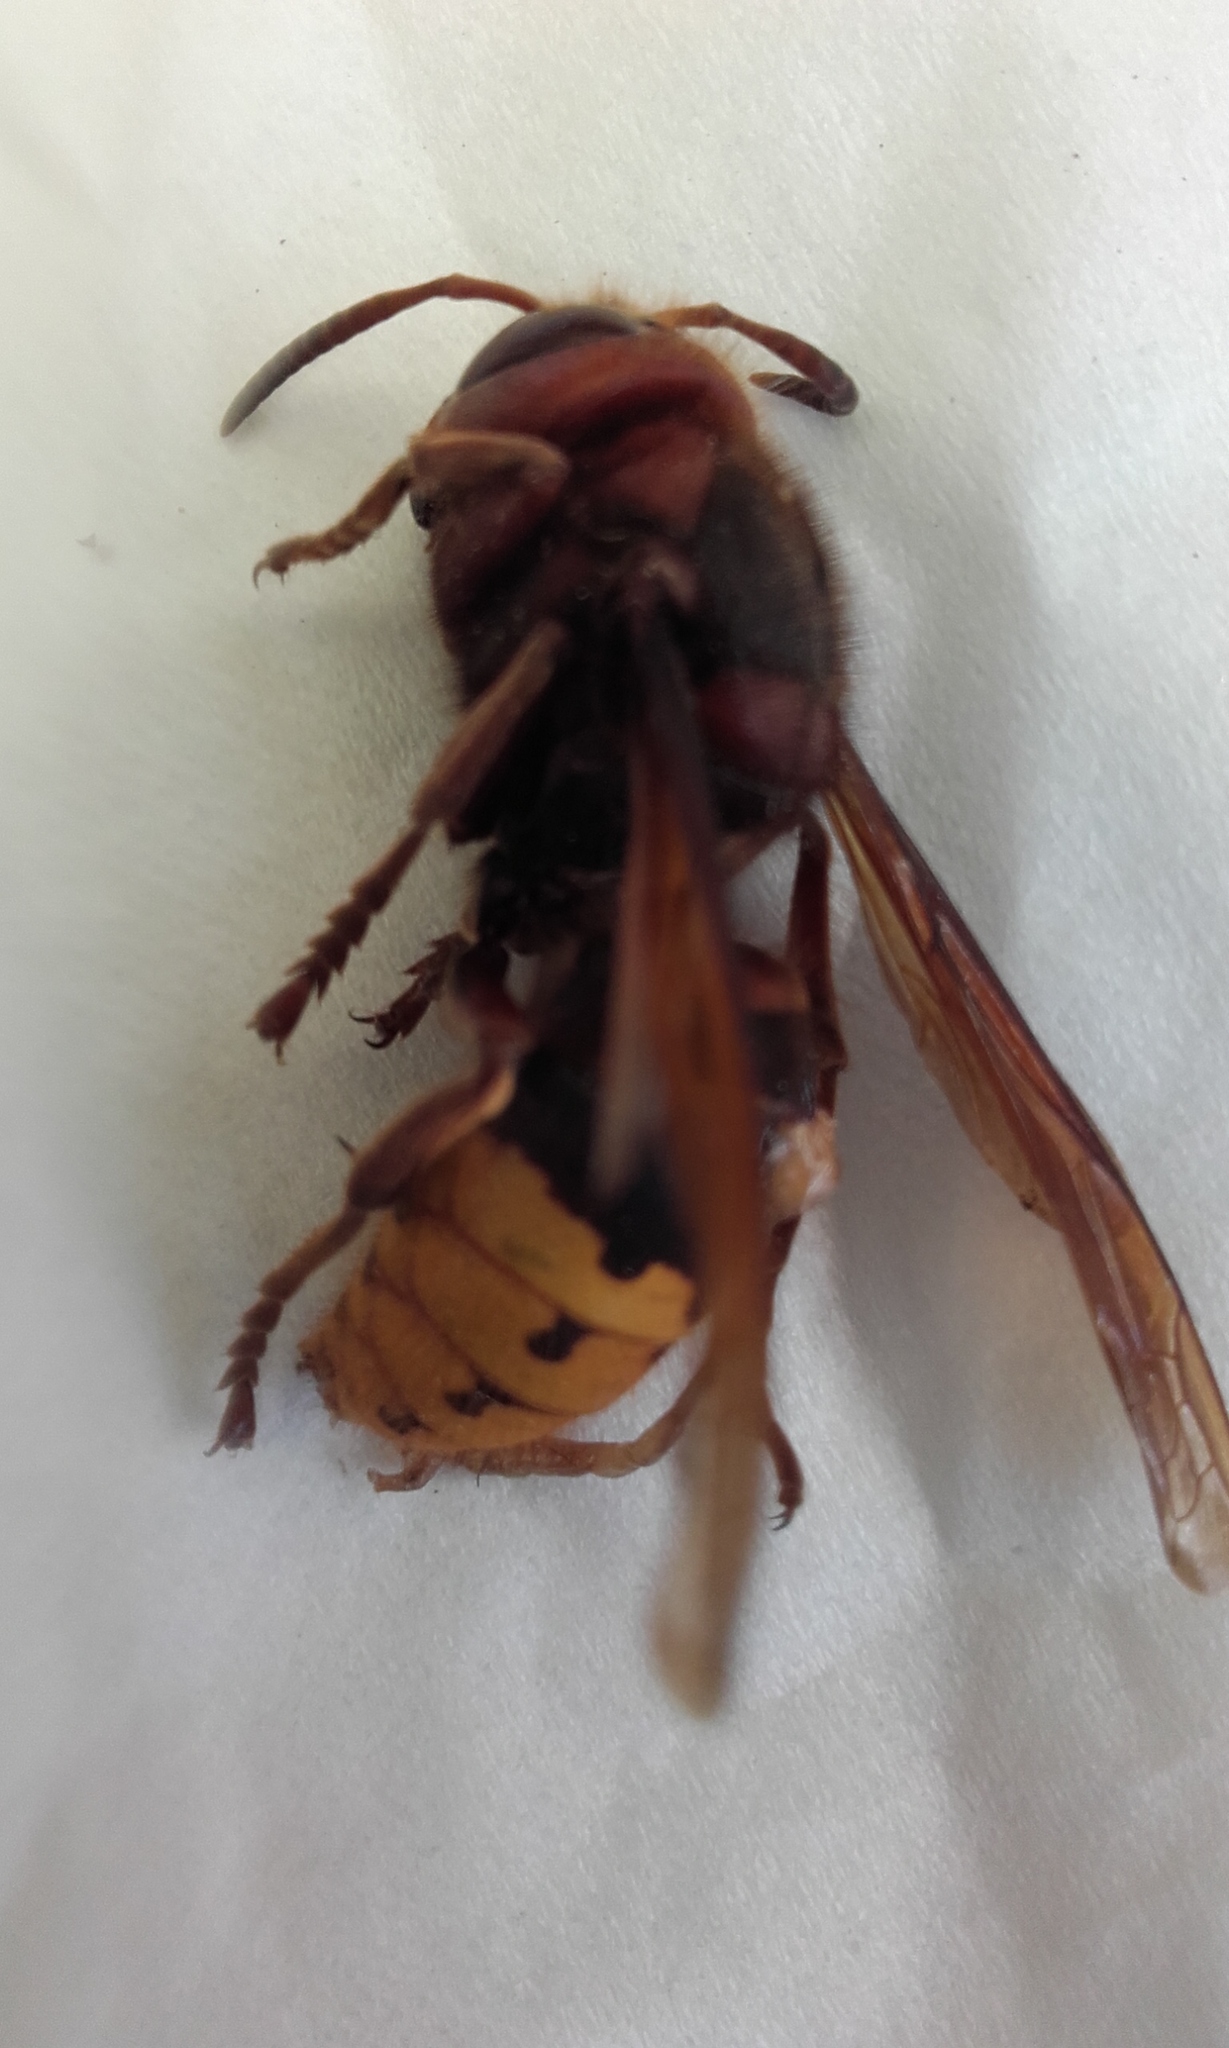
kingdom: Animalia
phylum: Arthropoda
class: Insecta
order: Hymenoptera
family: Vespidae
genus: Vespa
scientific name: Vespa crabro
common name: Hornet
